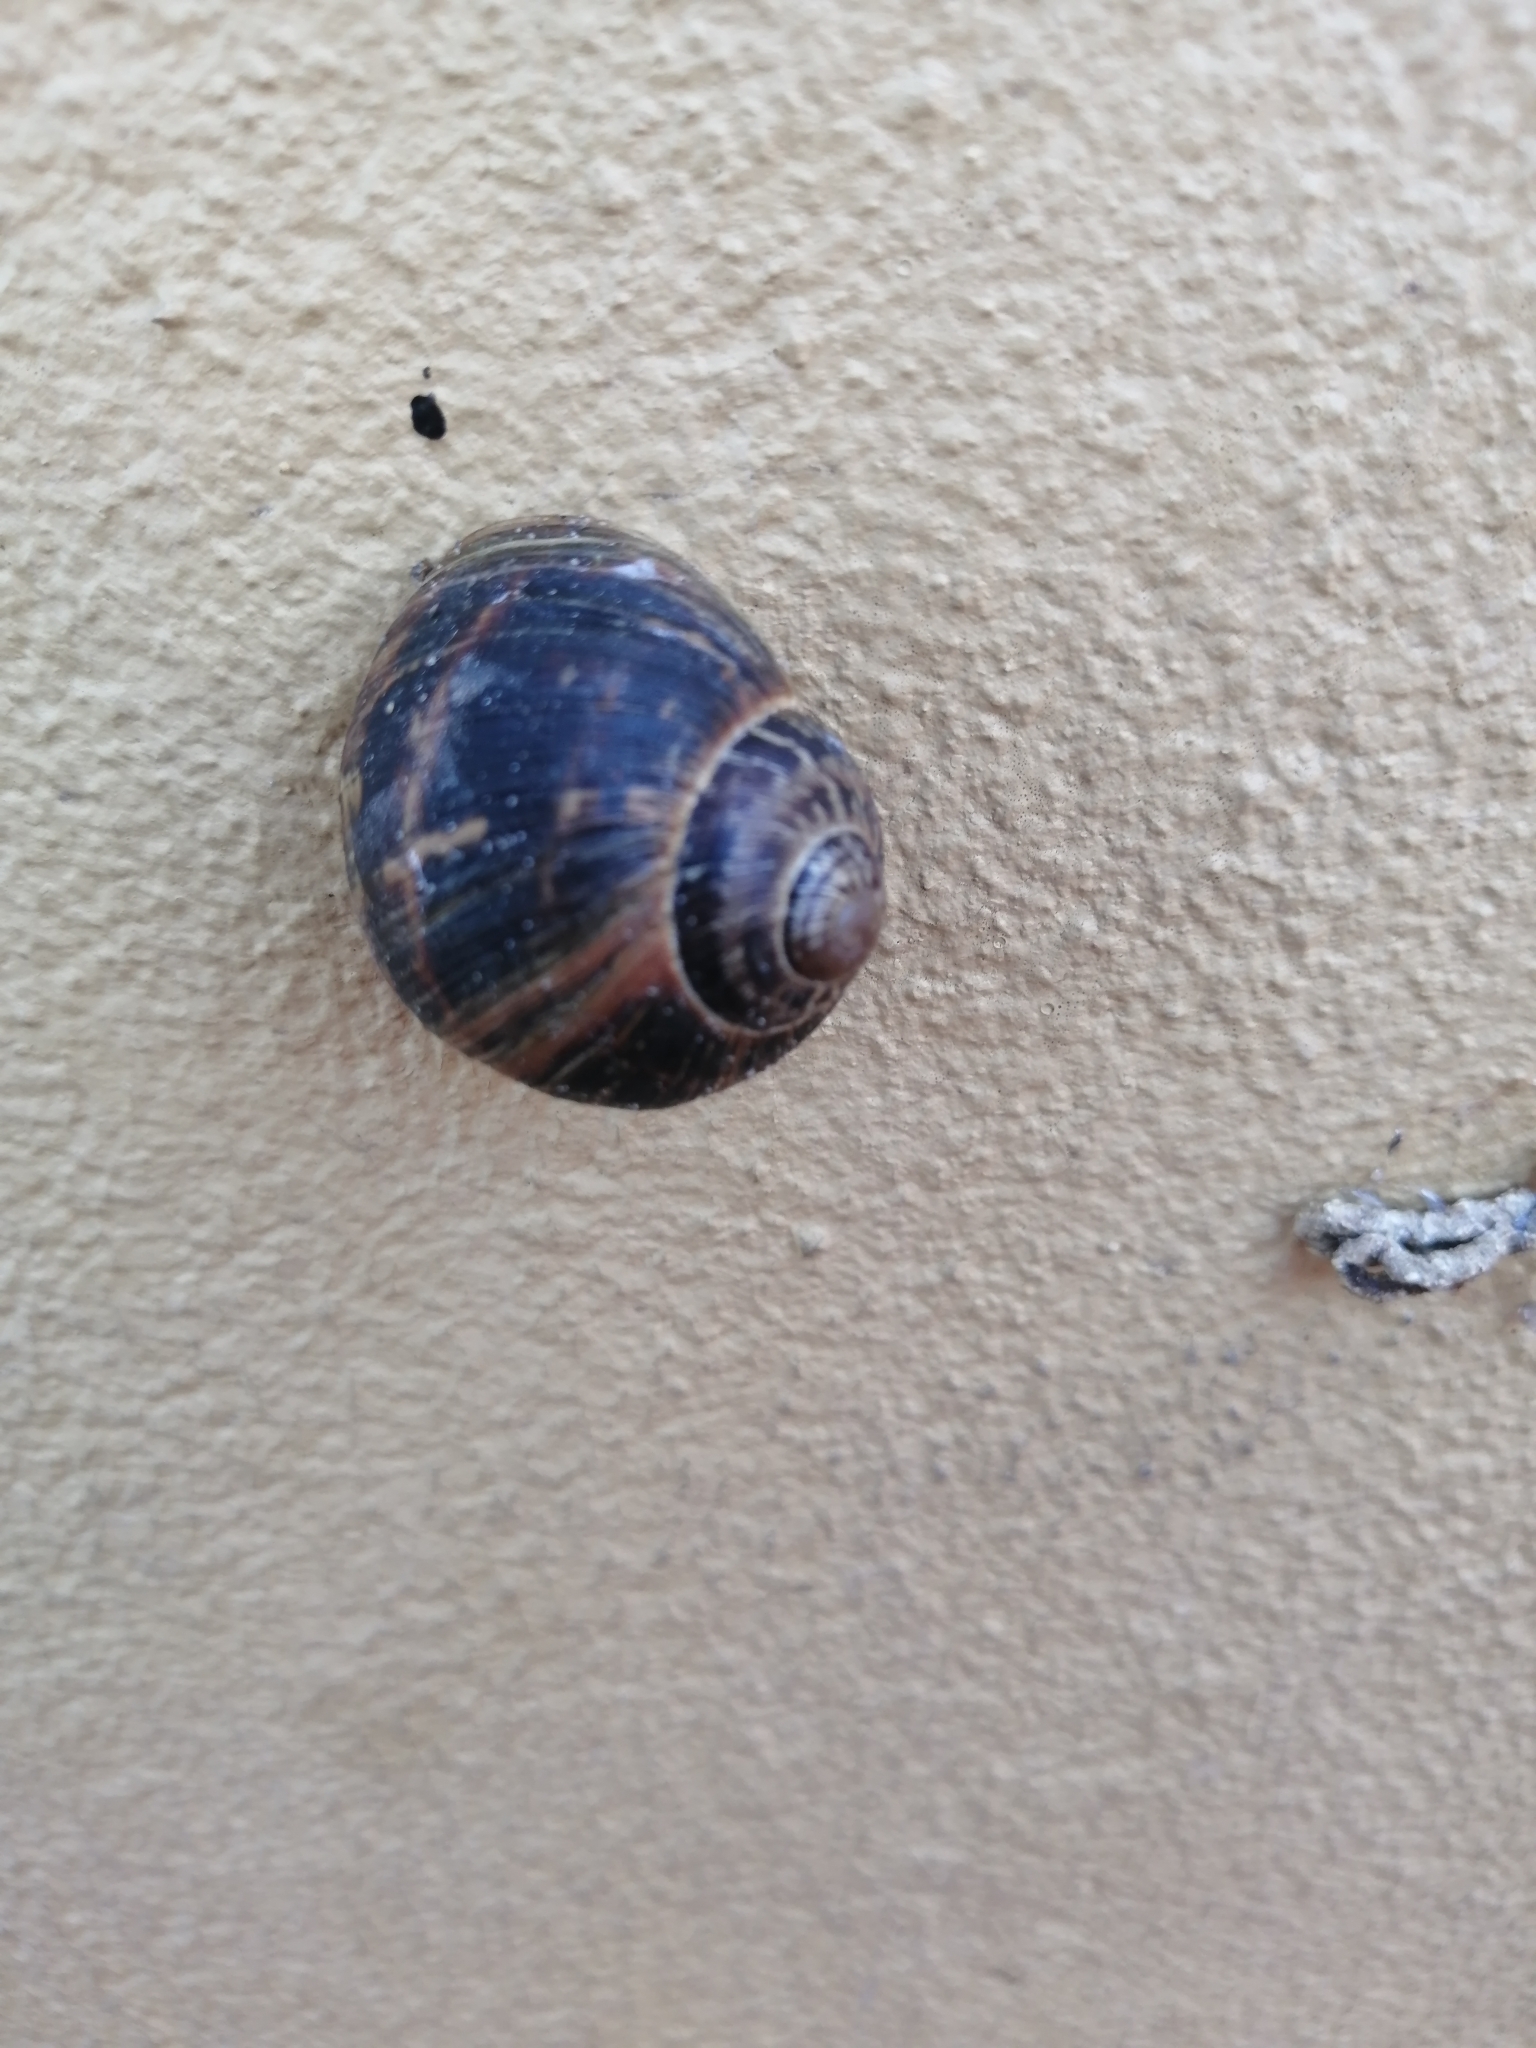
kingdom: Animalia
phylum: Mollusca
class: Gastropoda
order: Stylommatophora
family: Helicidae
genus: Cornu
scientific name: Cornu aspersum
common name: Brown garden snail
